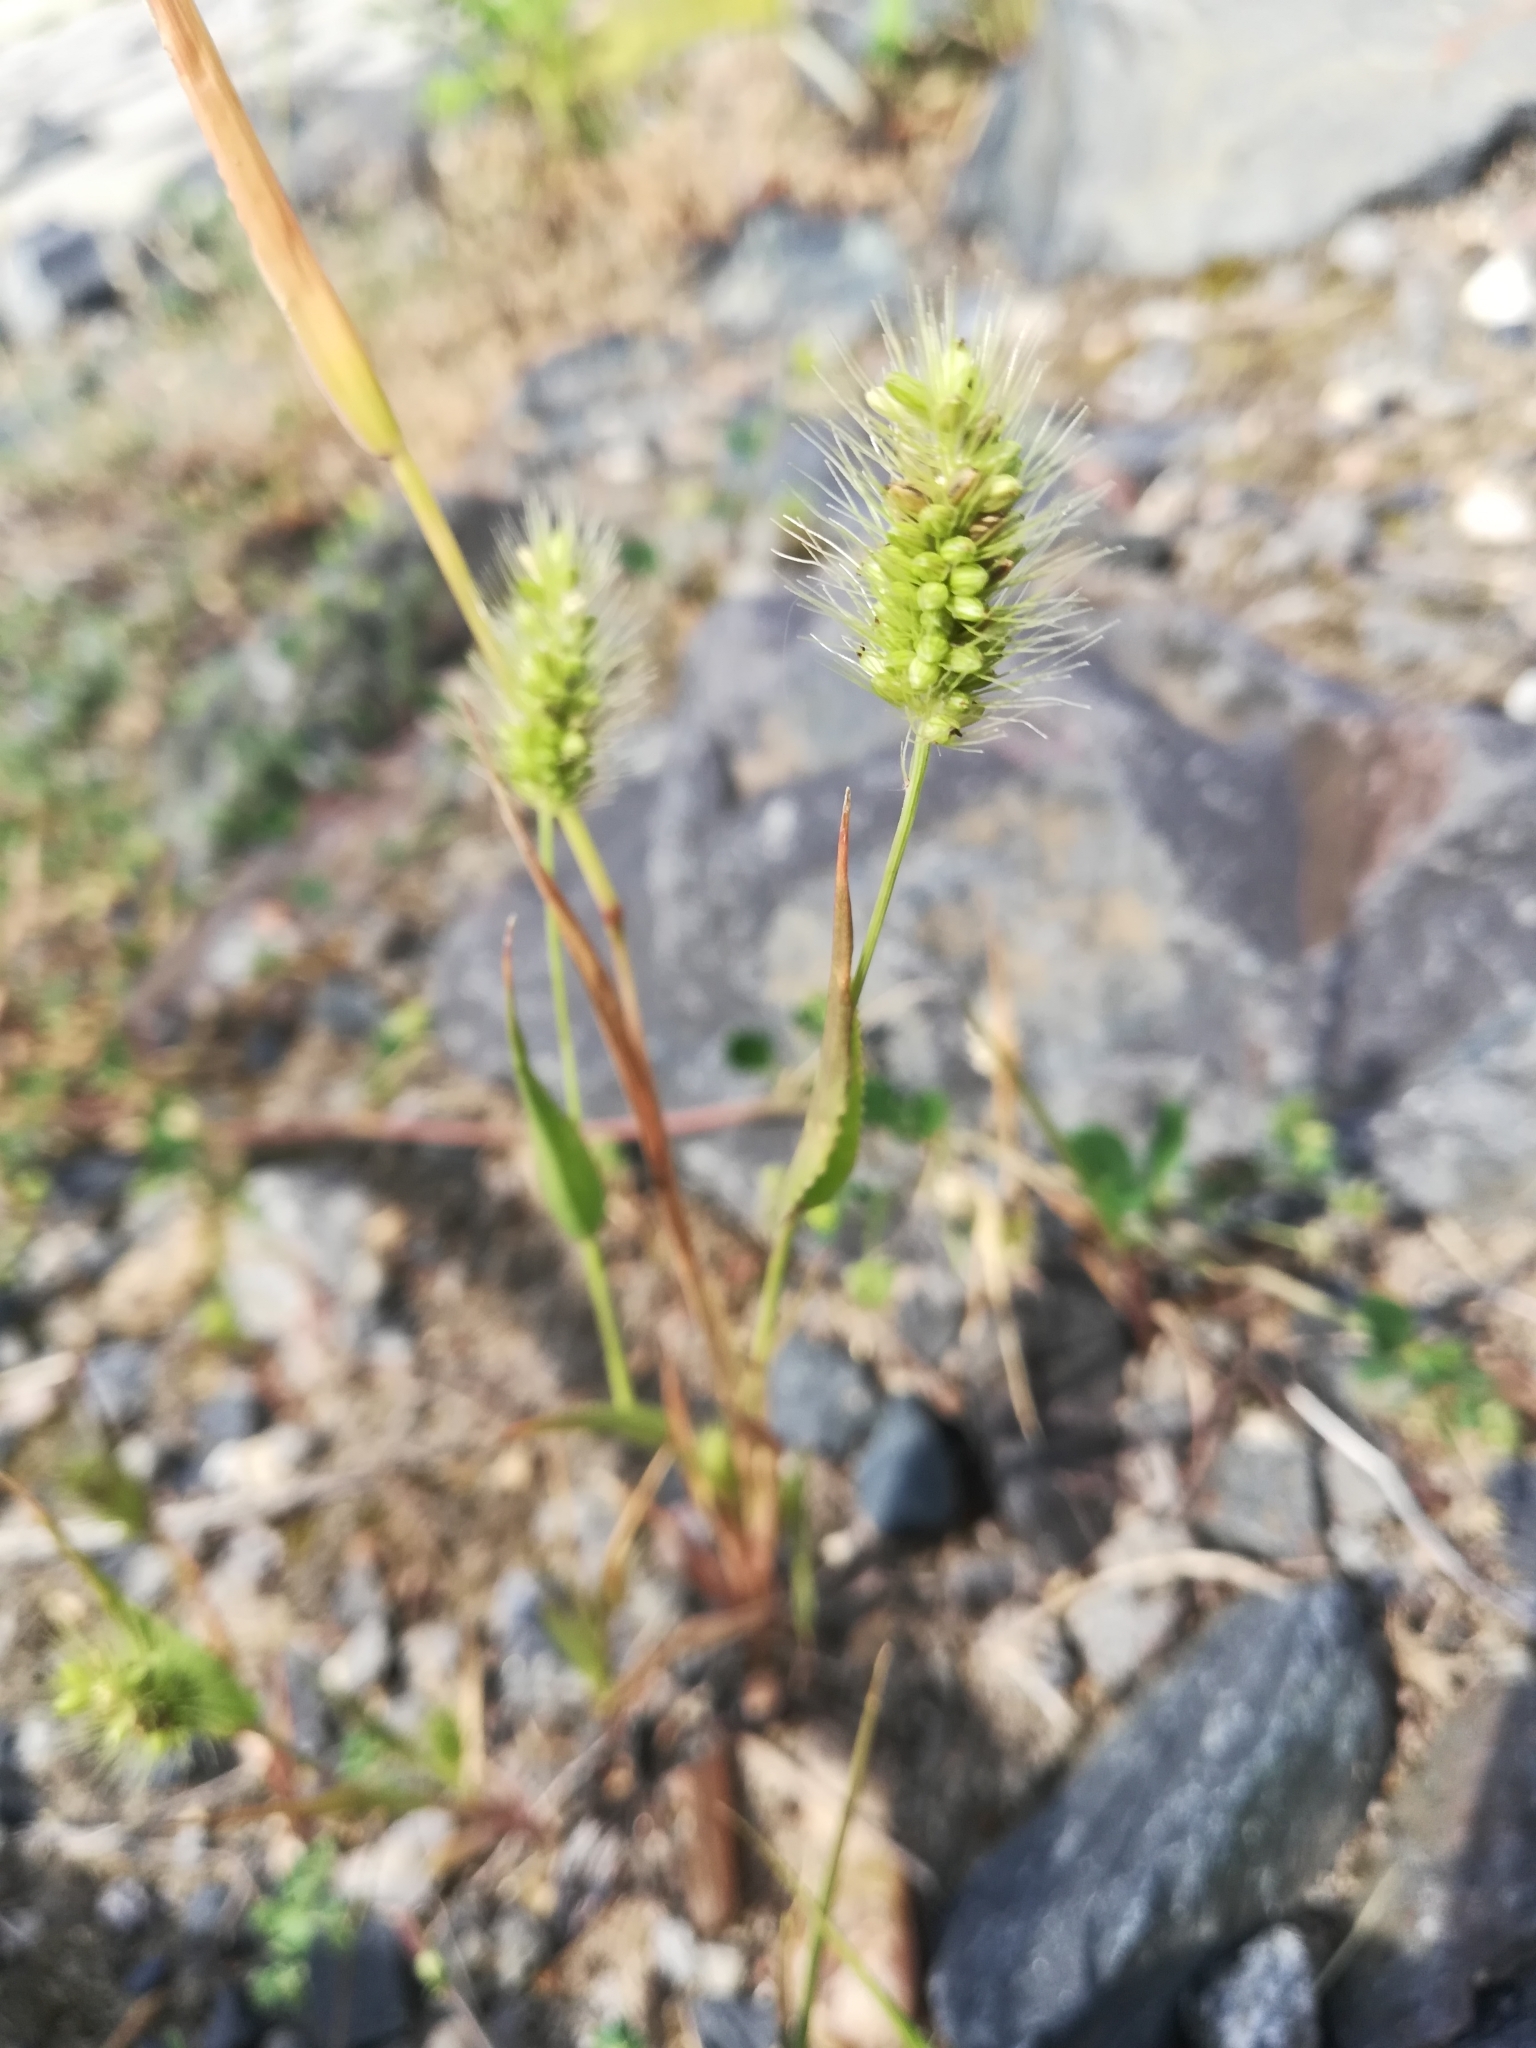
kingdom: Plantae
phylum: Tracheophyta
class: Liliopsida
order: Poales
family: Poaceae
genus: Setaria
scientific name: Setaria viridis
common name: Green bristlegrass
